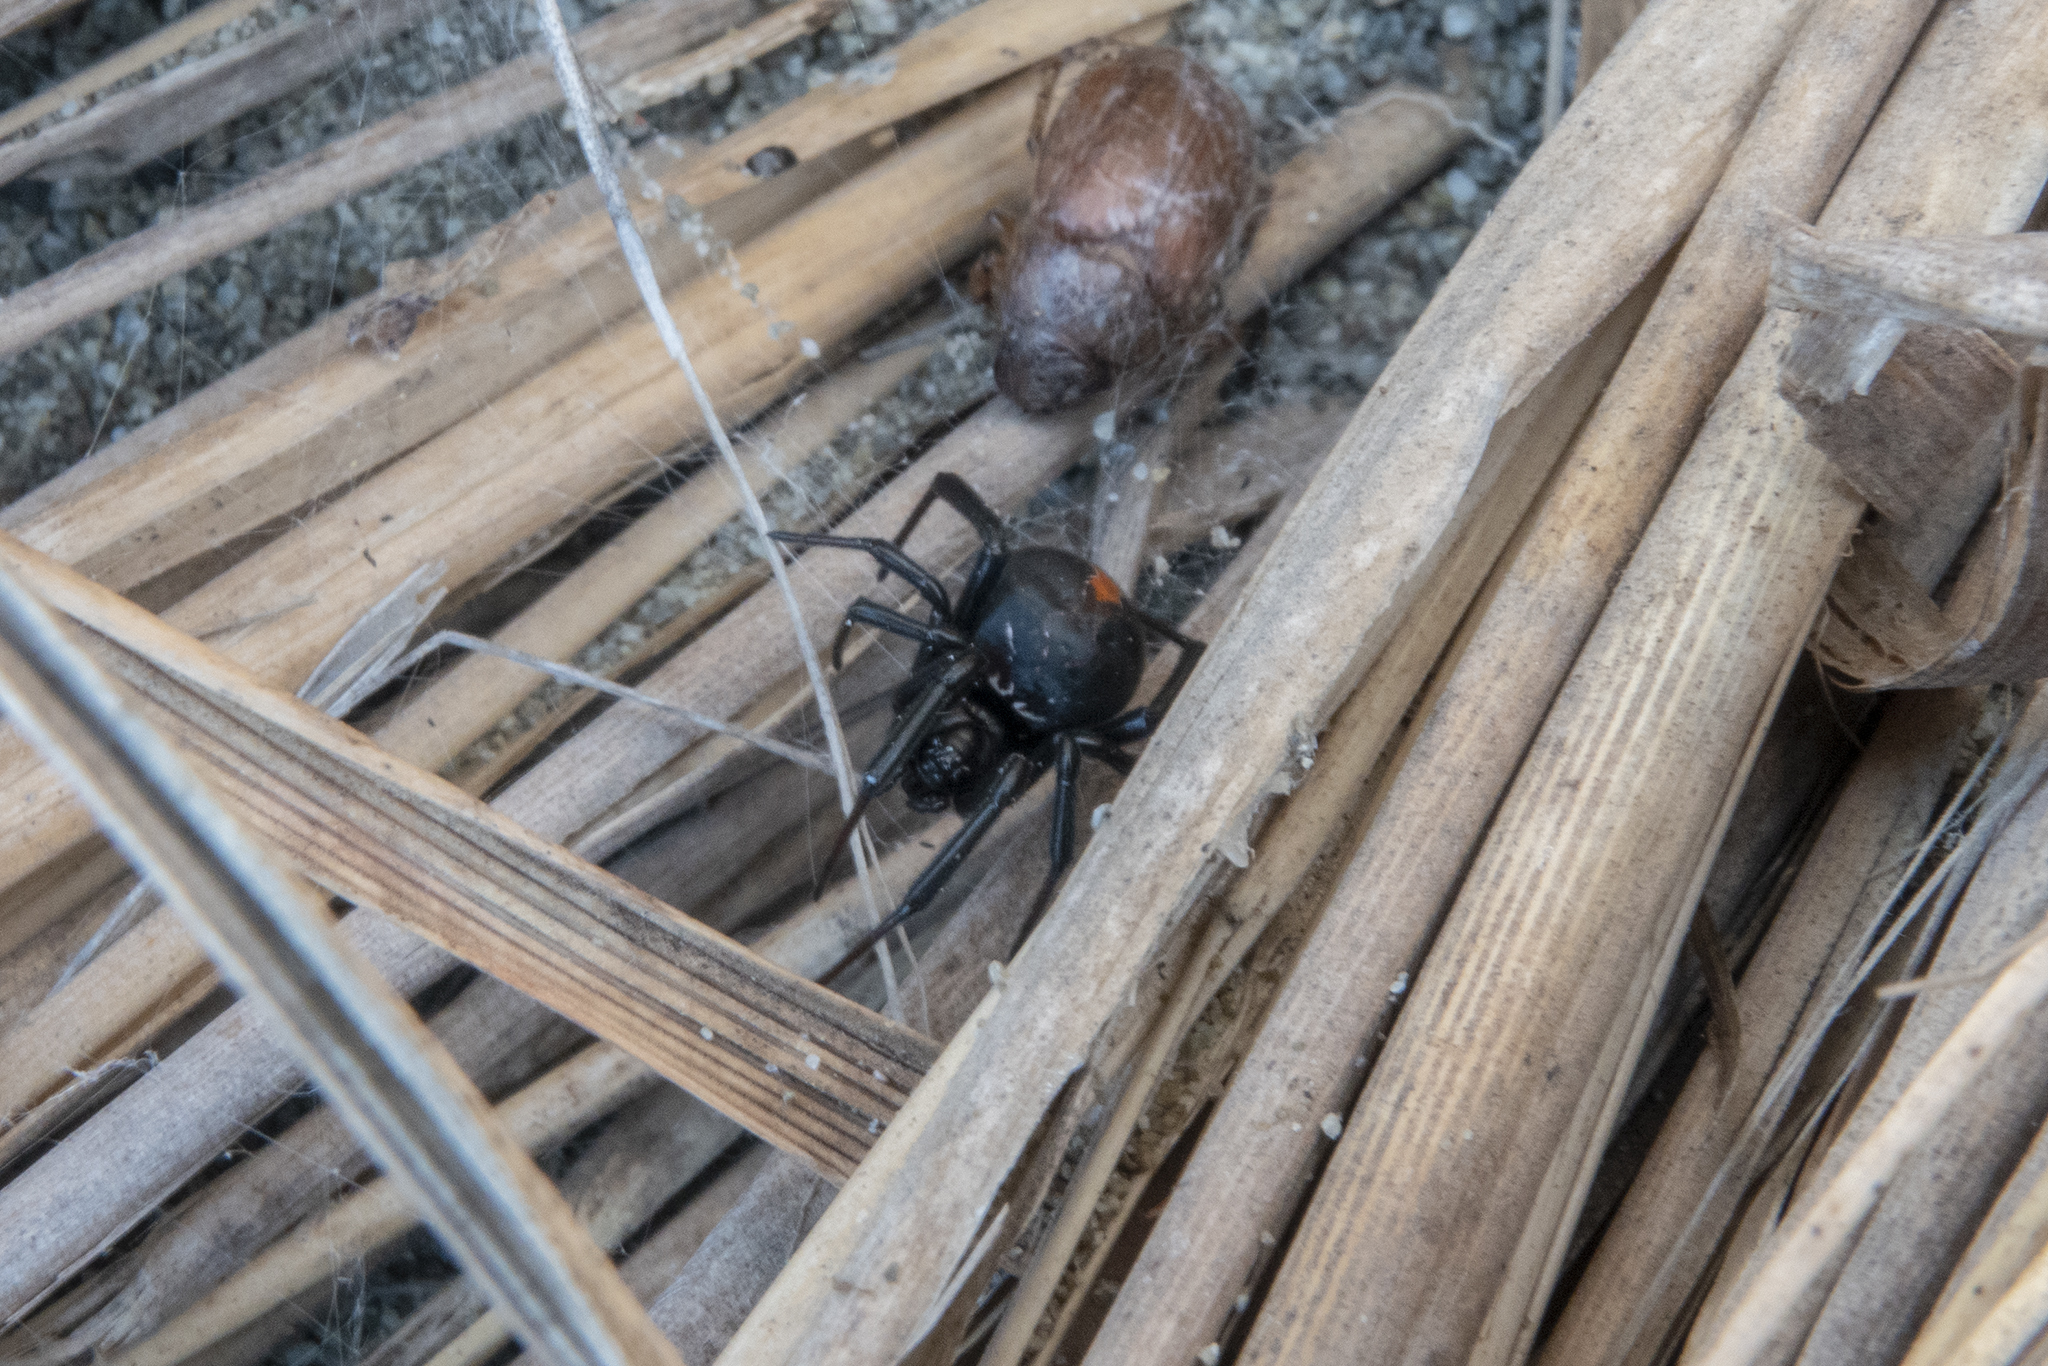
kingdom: Animalia
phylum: Arthropoda
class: Arachnida
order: Araneae
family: Theridiidae
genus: Latrodectus
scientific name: Latrodectus katipo
